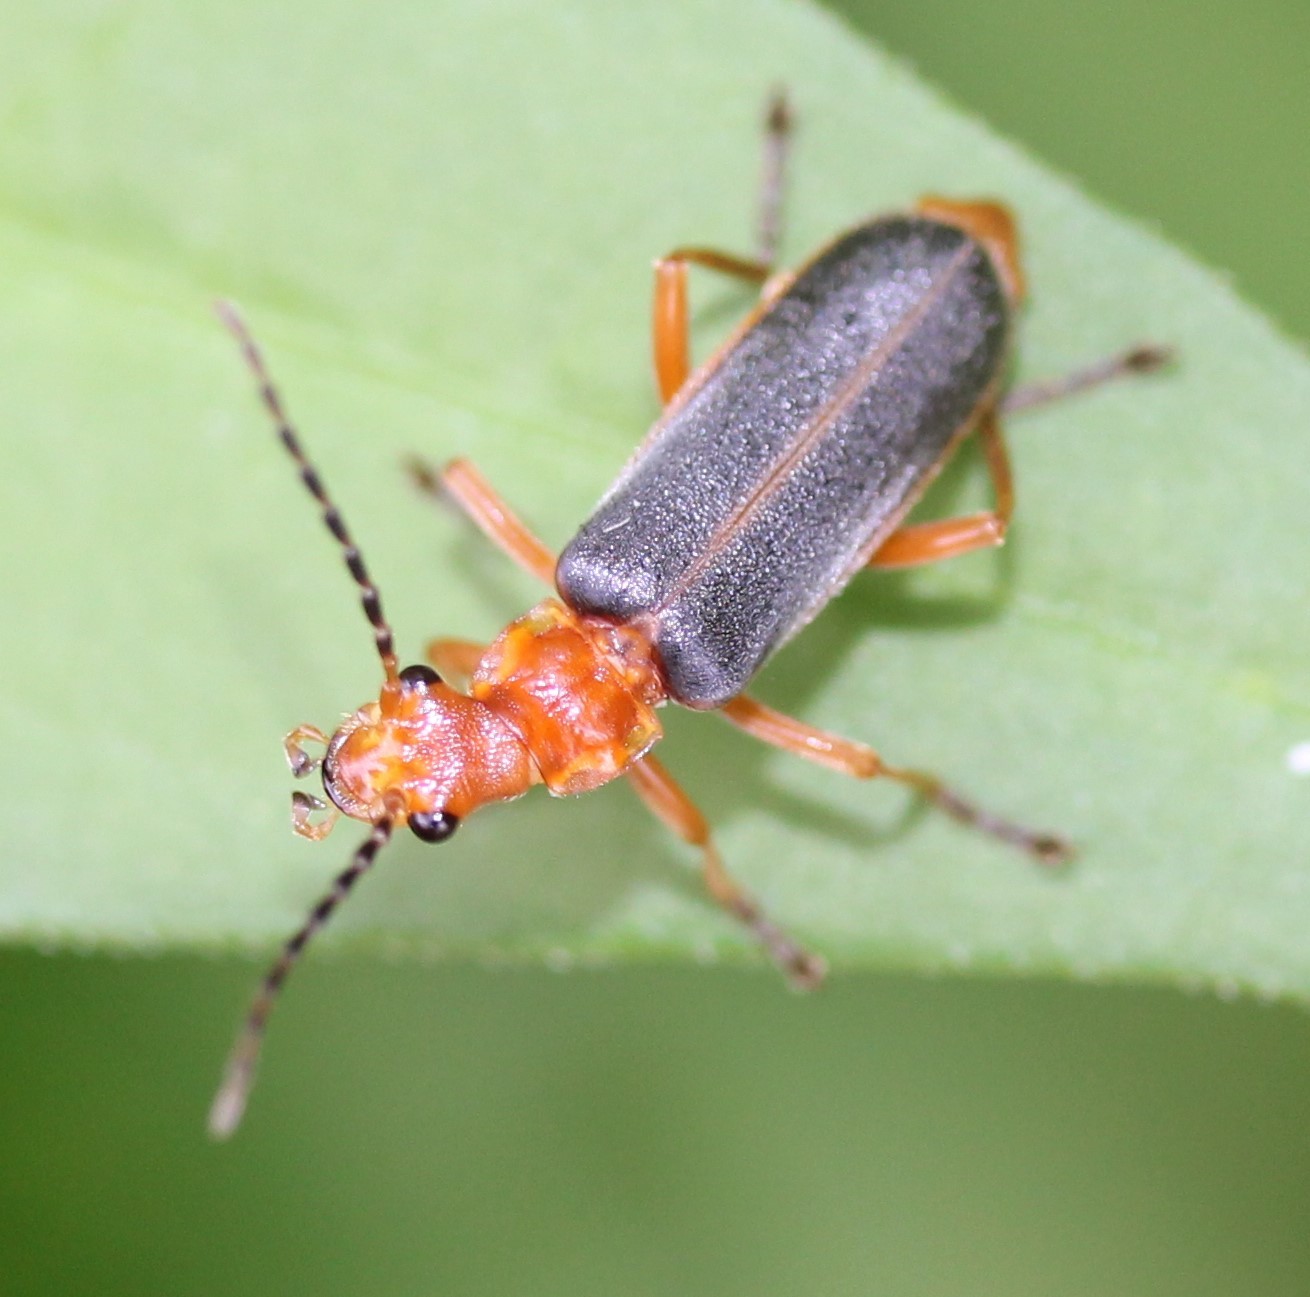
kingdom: Animalia
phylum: Arthropoda
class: Insecta
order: Coleoptera
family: Cantharidae
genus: Podabrus
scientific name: Podabrus tomentosus
